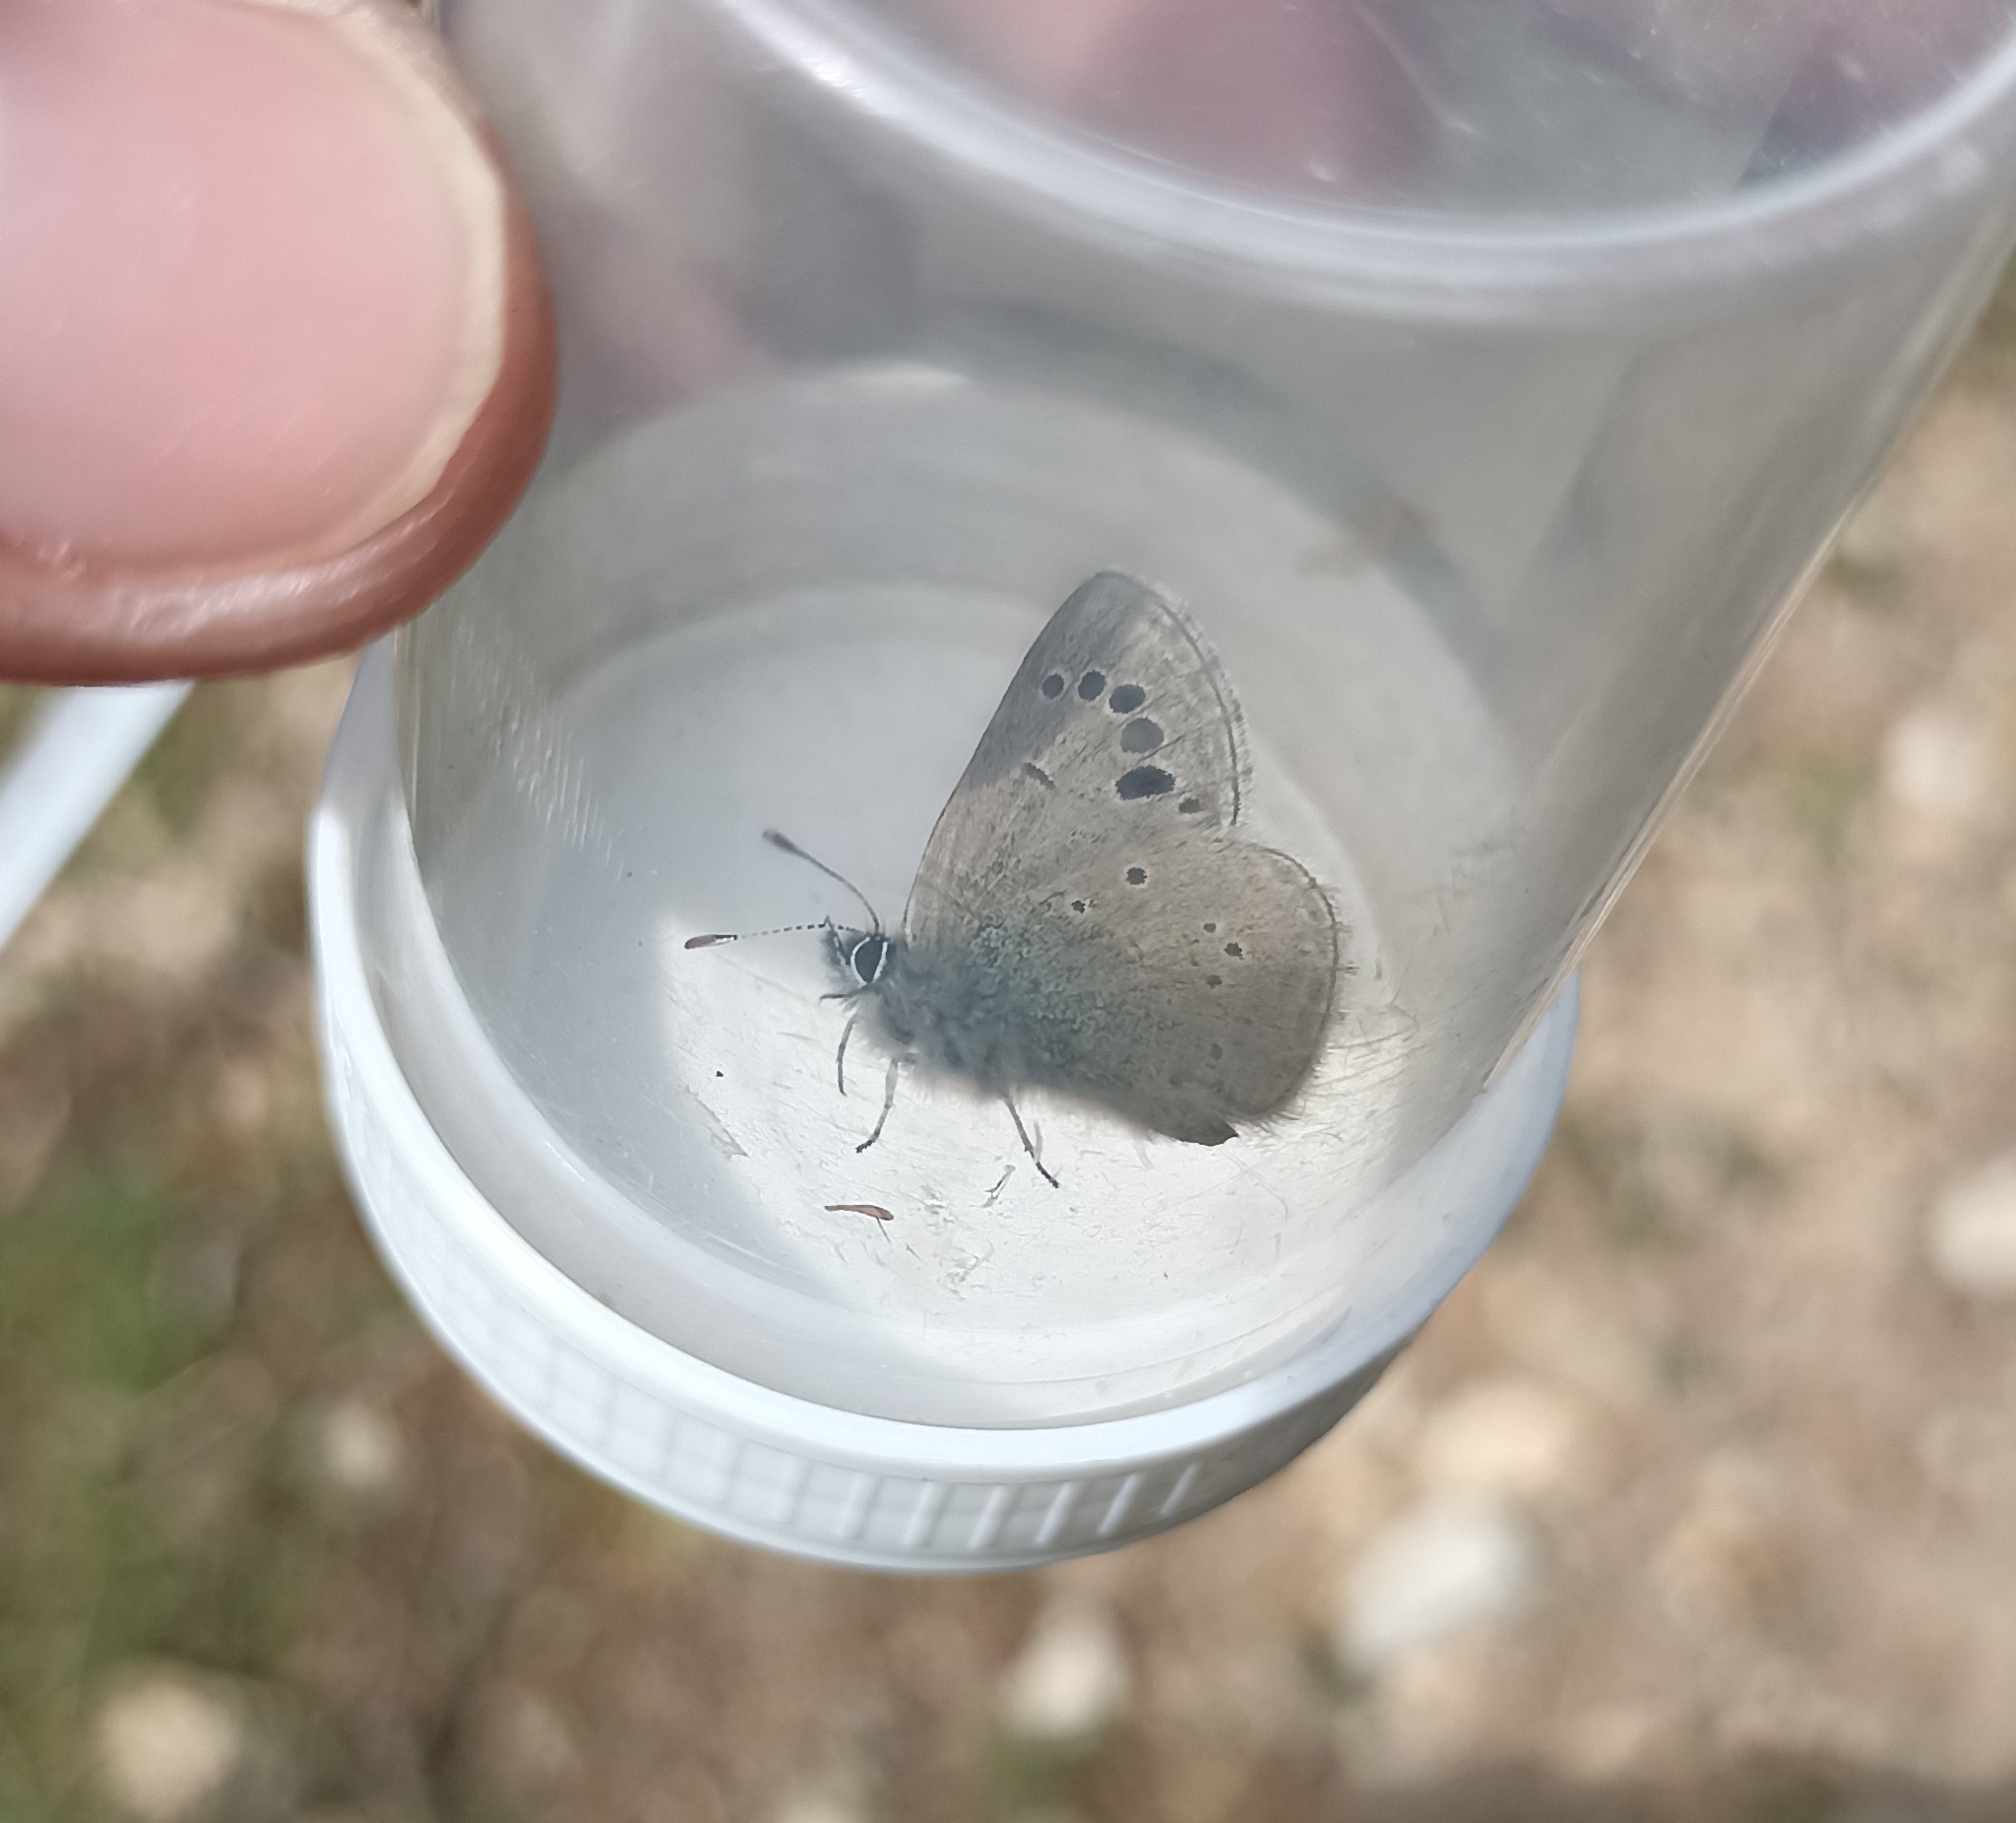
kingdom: Animalia
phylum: Arthropoda
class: Insecta
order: Lepidoptera
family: Lycaenidae
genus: Glaucopsyche
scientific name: Glaucopsyche melanops
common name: Black-eyed blue
